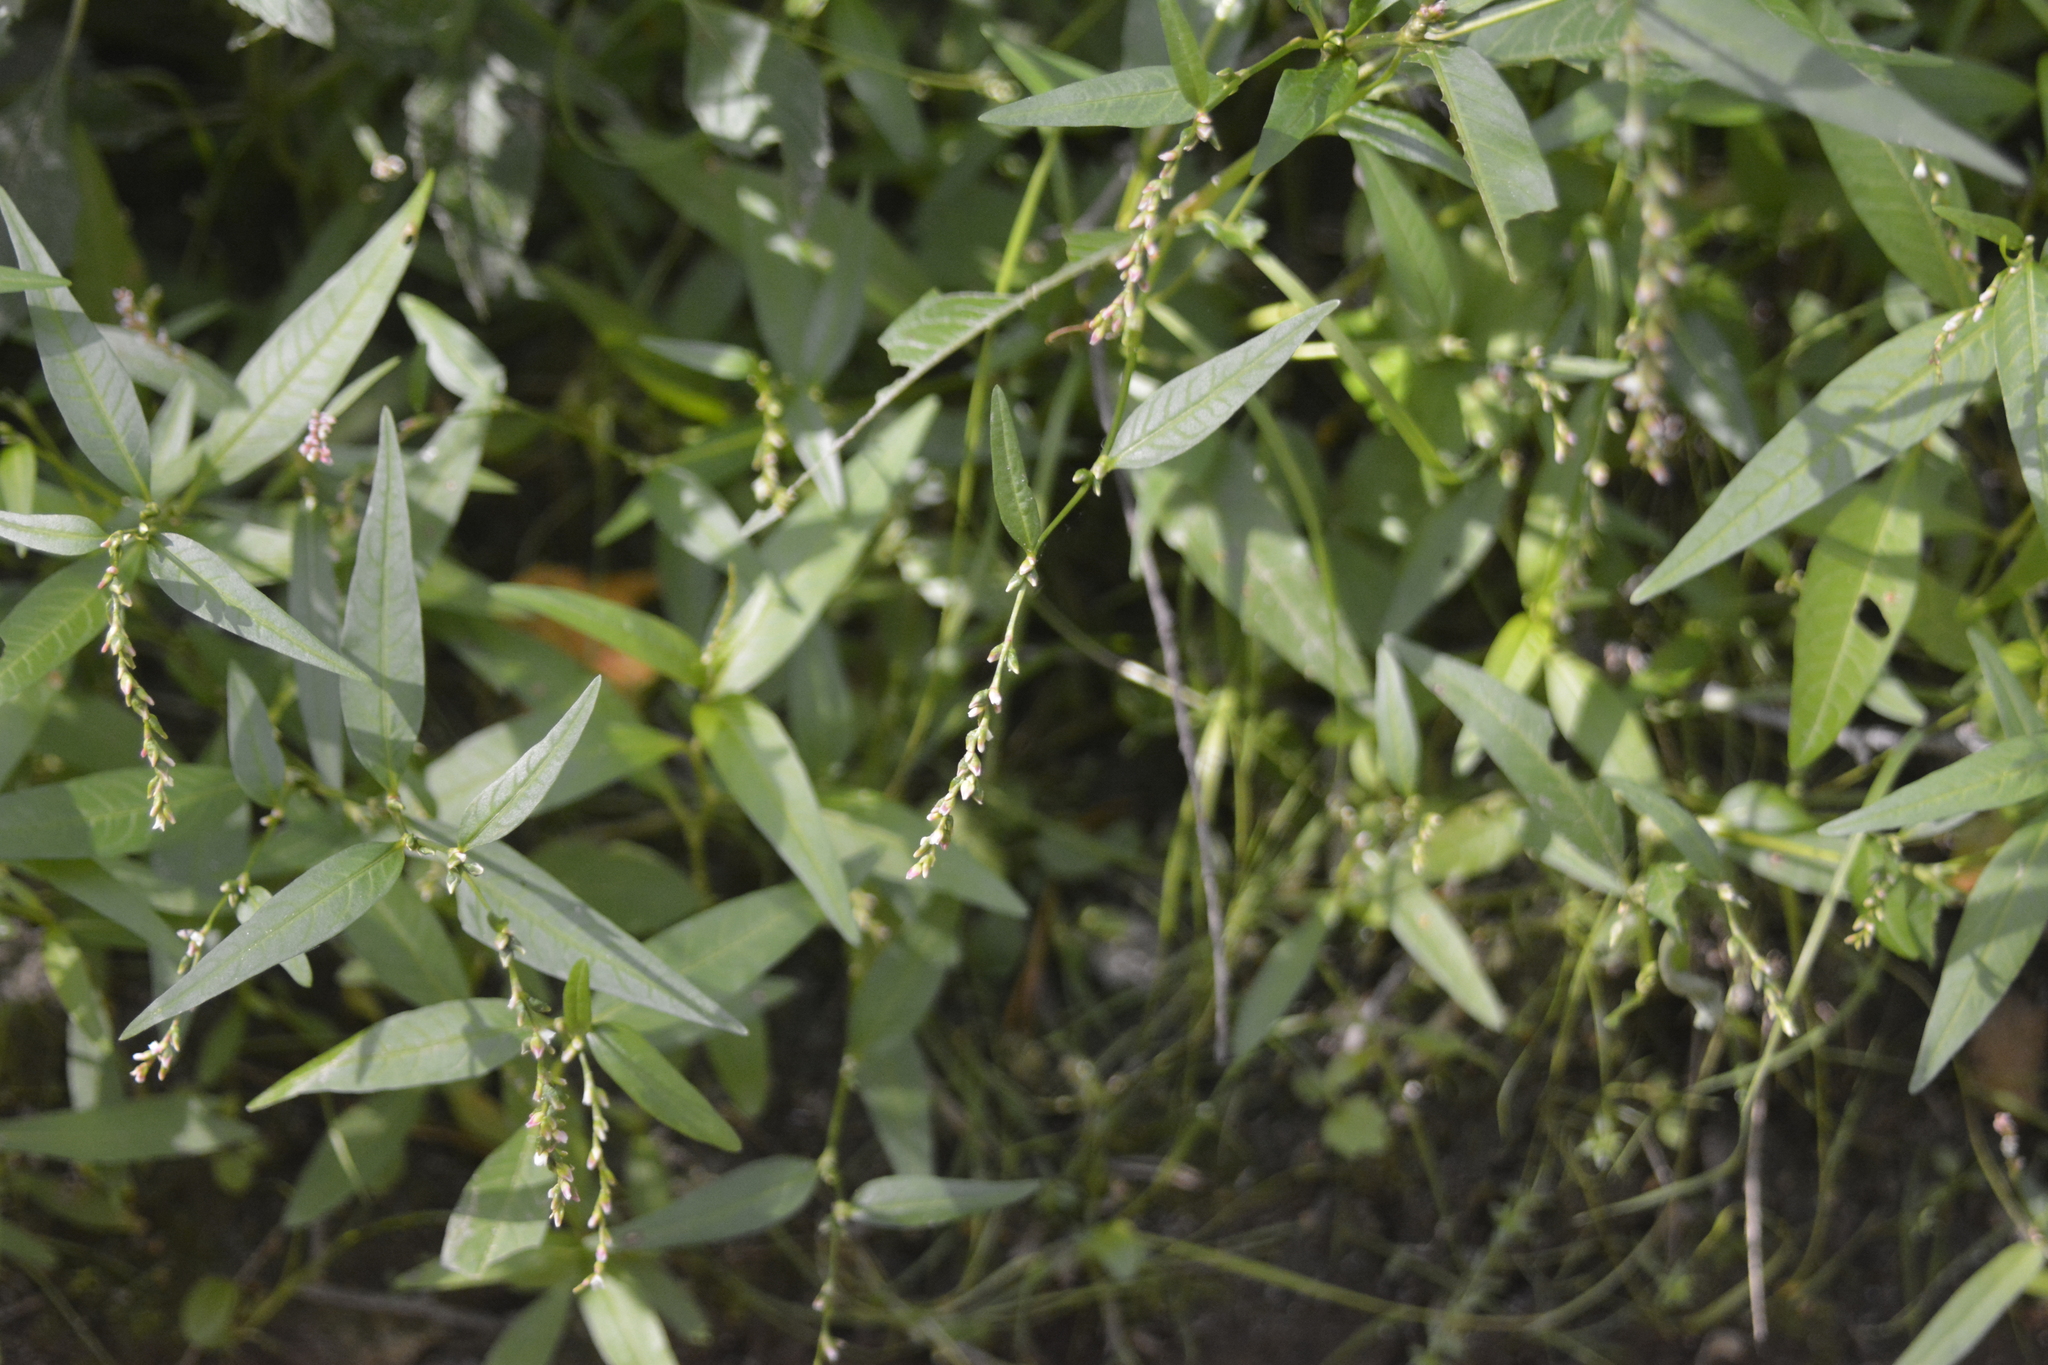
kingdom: Plantae
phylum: Tracheophyta
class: Magnoliopsida
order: Caryophyllales
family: Polygonaceae
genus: Persicaria
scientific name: Persicaria hydropiper
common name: Water-pepper
